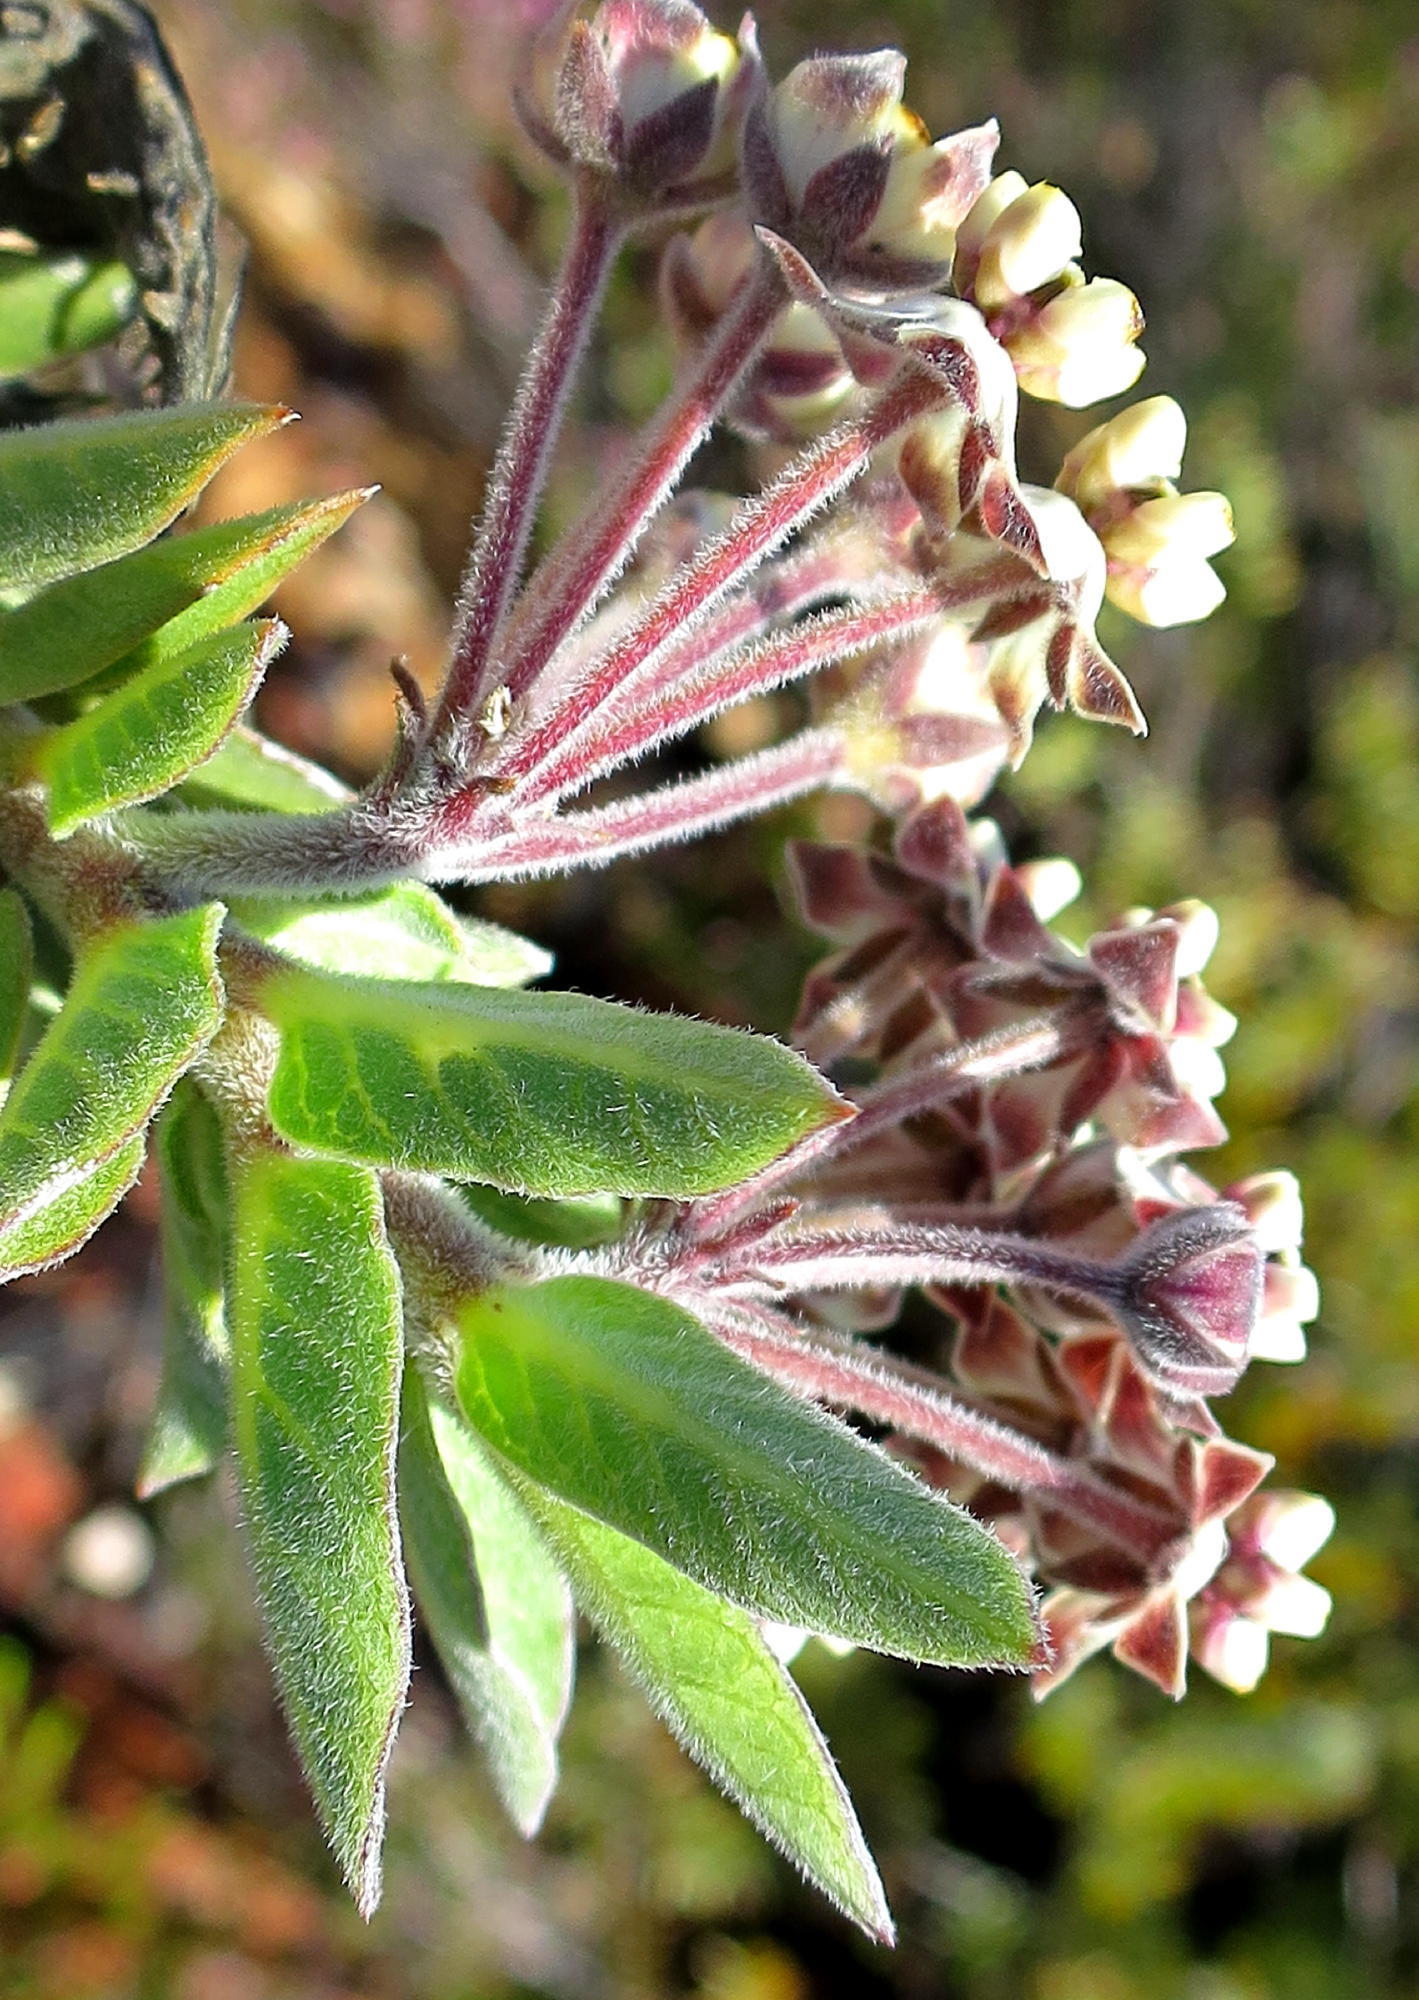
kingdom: Plantae
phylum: Tracheophyta
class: Magnoliopsida
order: Gentianales
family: Apocynaceae
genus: Gomphocarpus
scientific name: Gomphocarpus cancellatus
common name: Wild cotton
